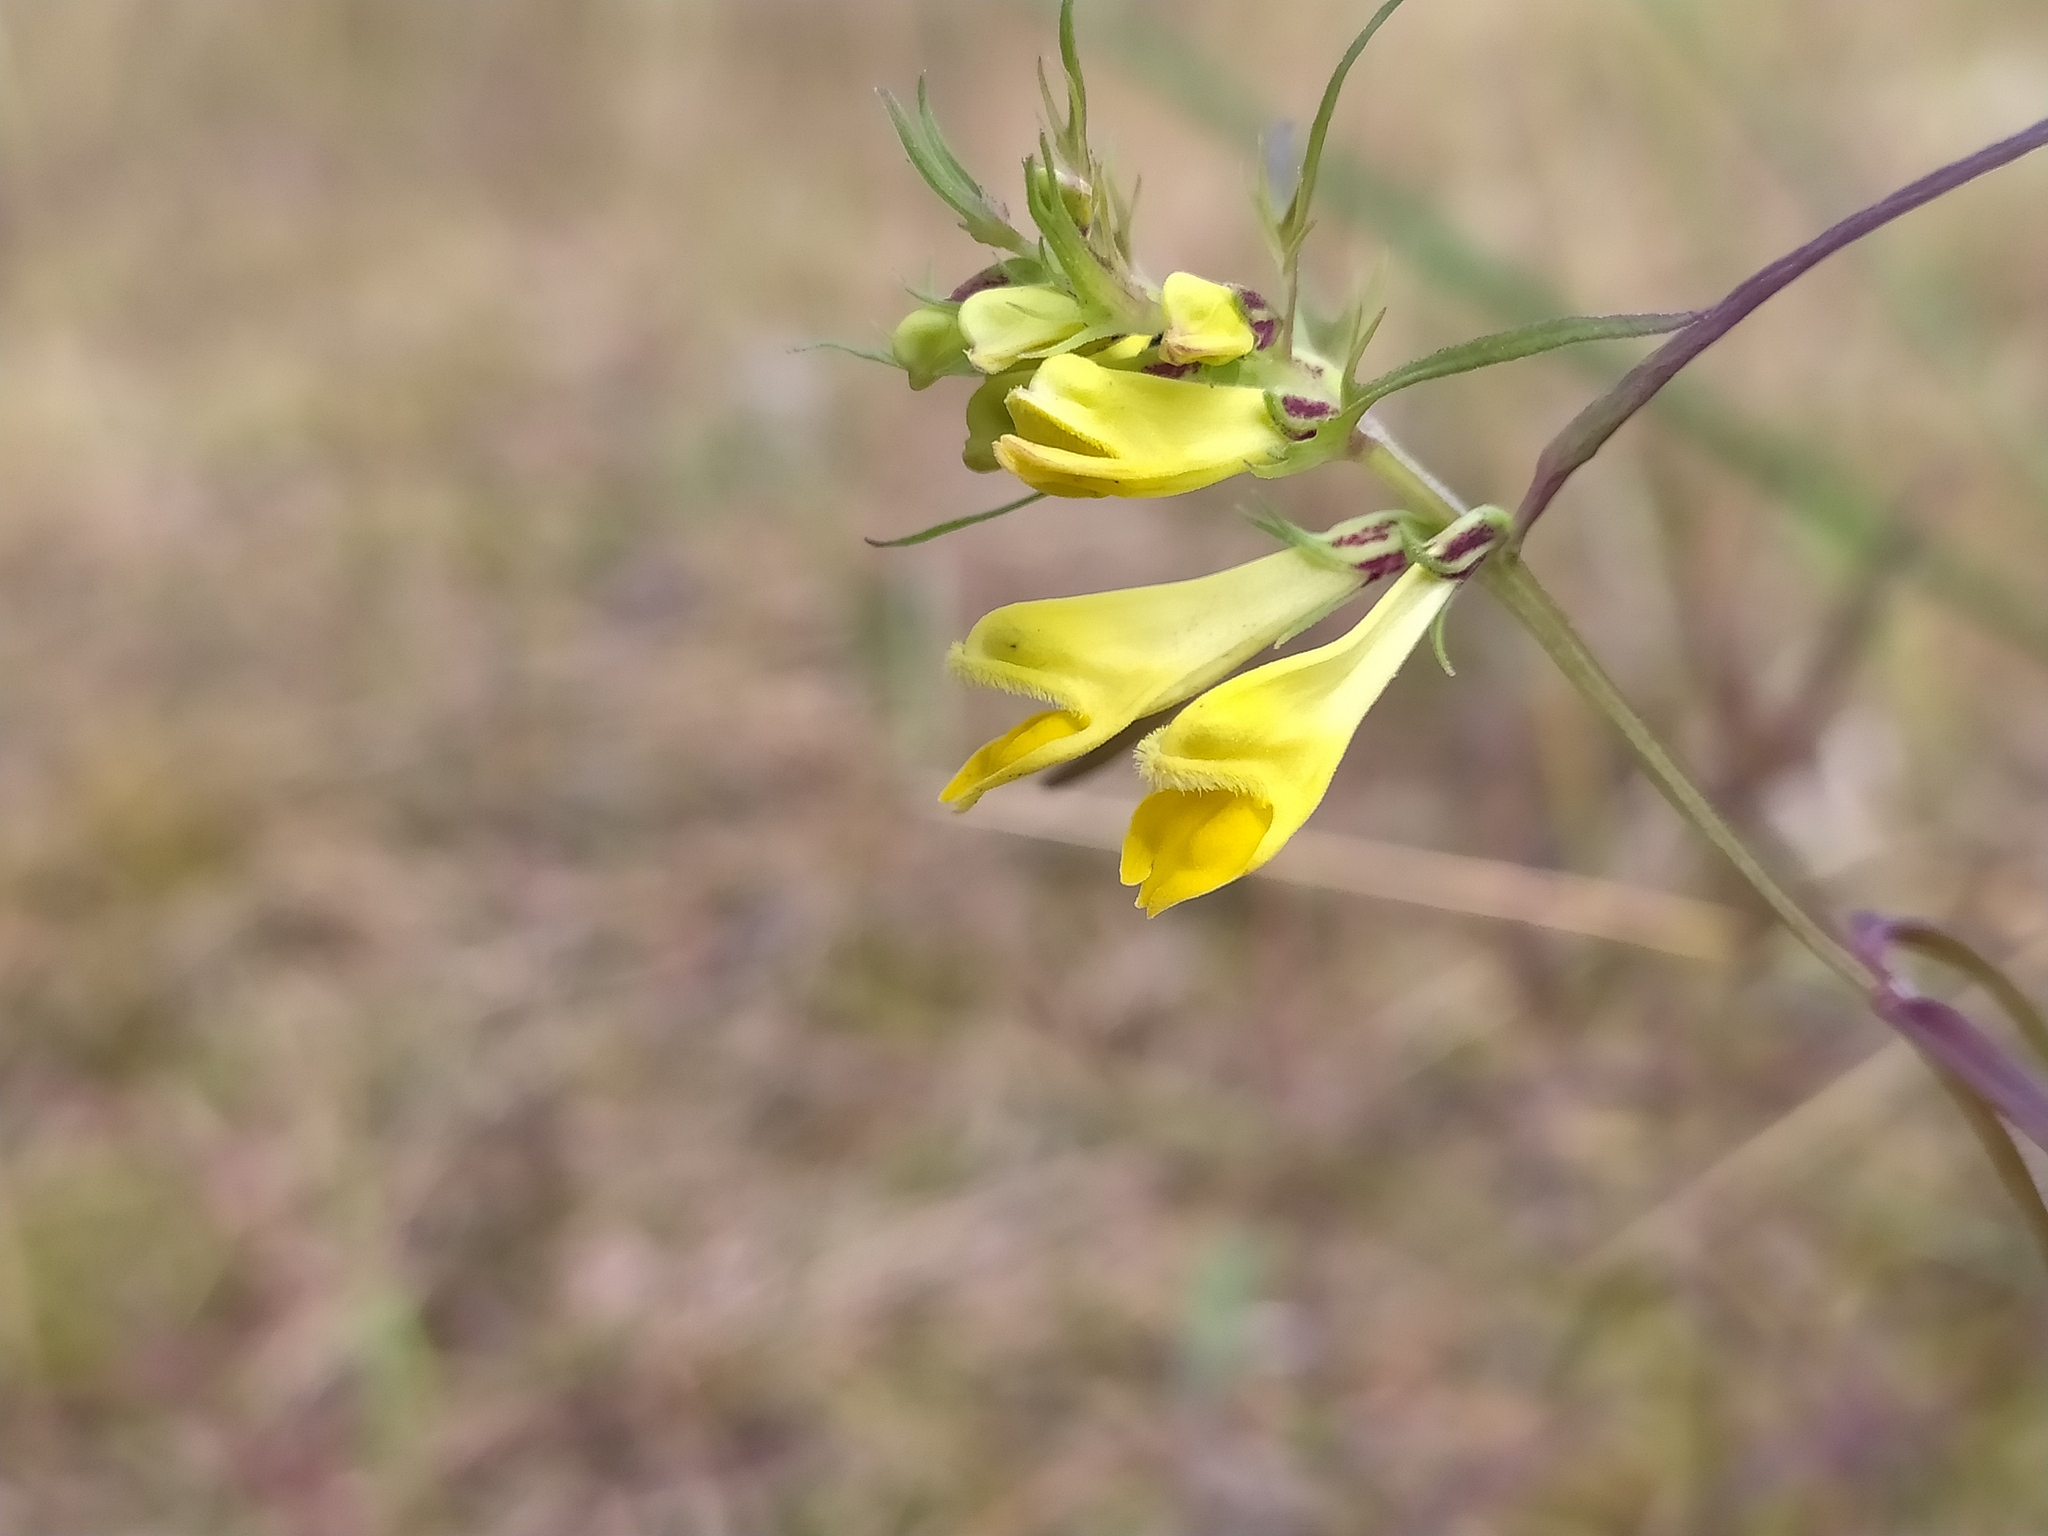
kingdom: Plantae
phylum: Tracheophyta
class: Magnoliopsida
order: Lamiales
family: Orobanchaceae
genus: Melampyrum
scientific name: Melampyrum pratense
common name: Common cow-wheat
